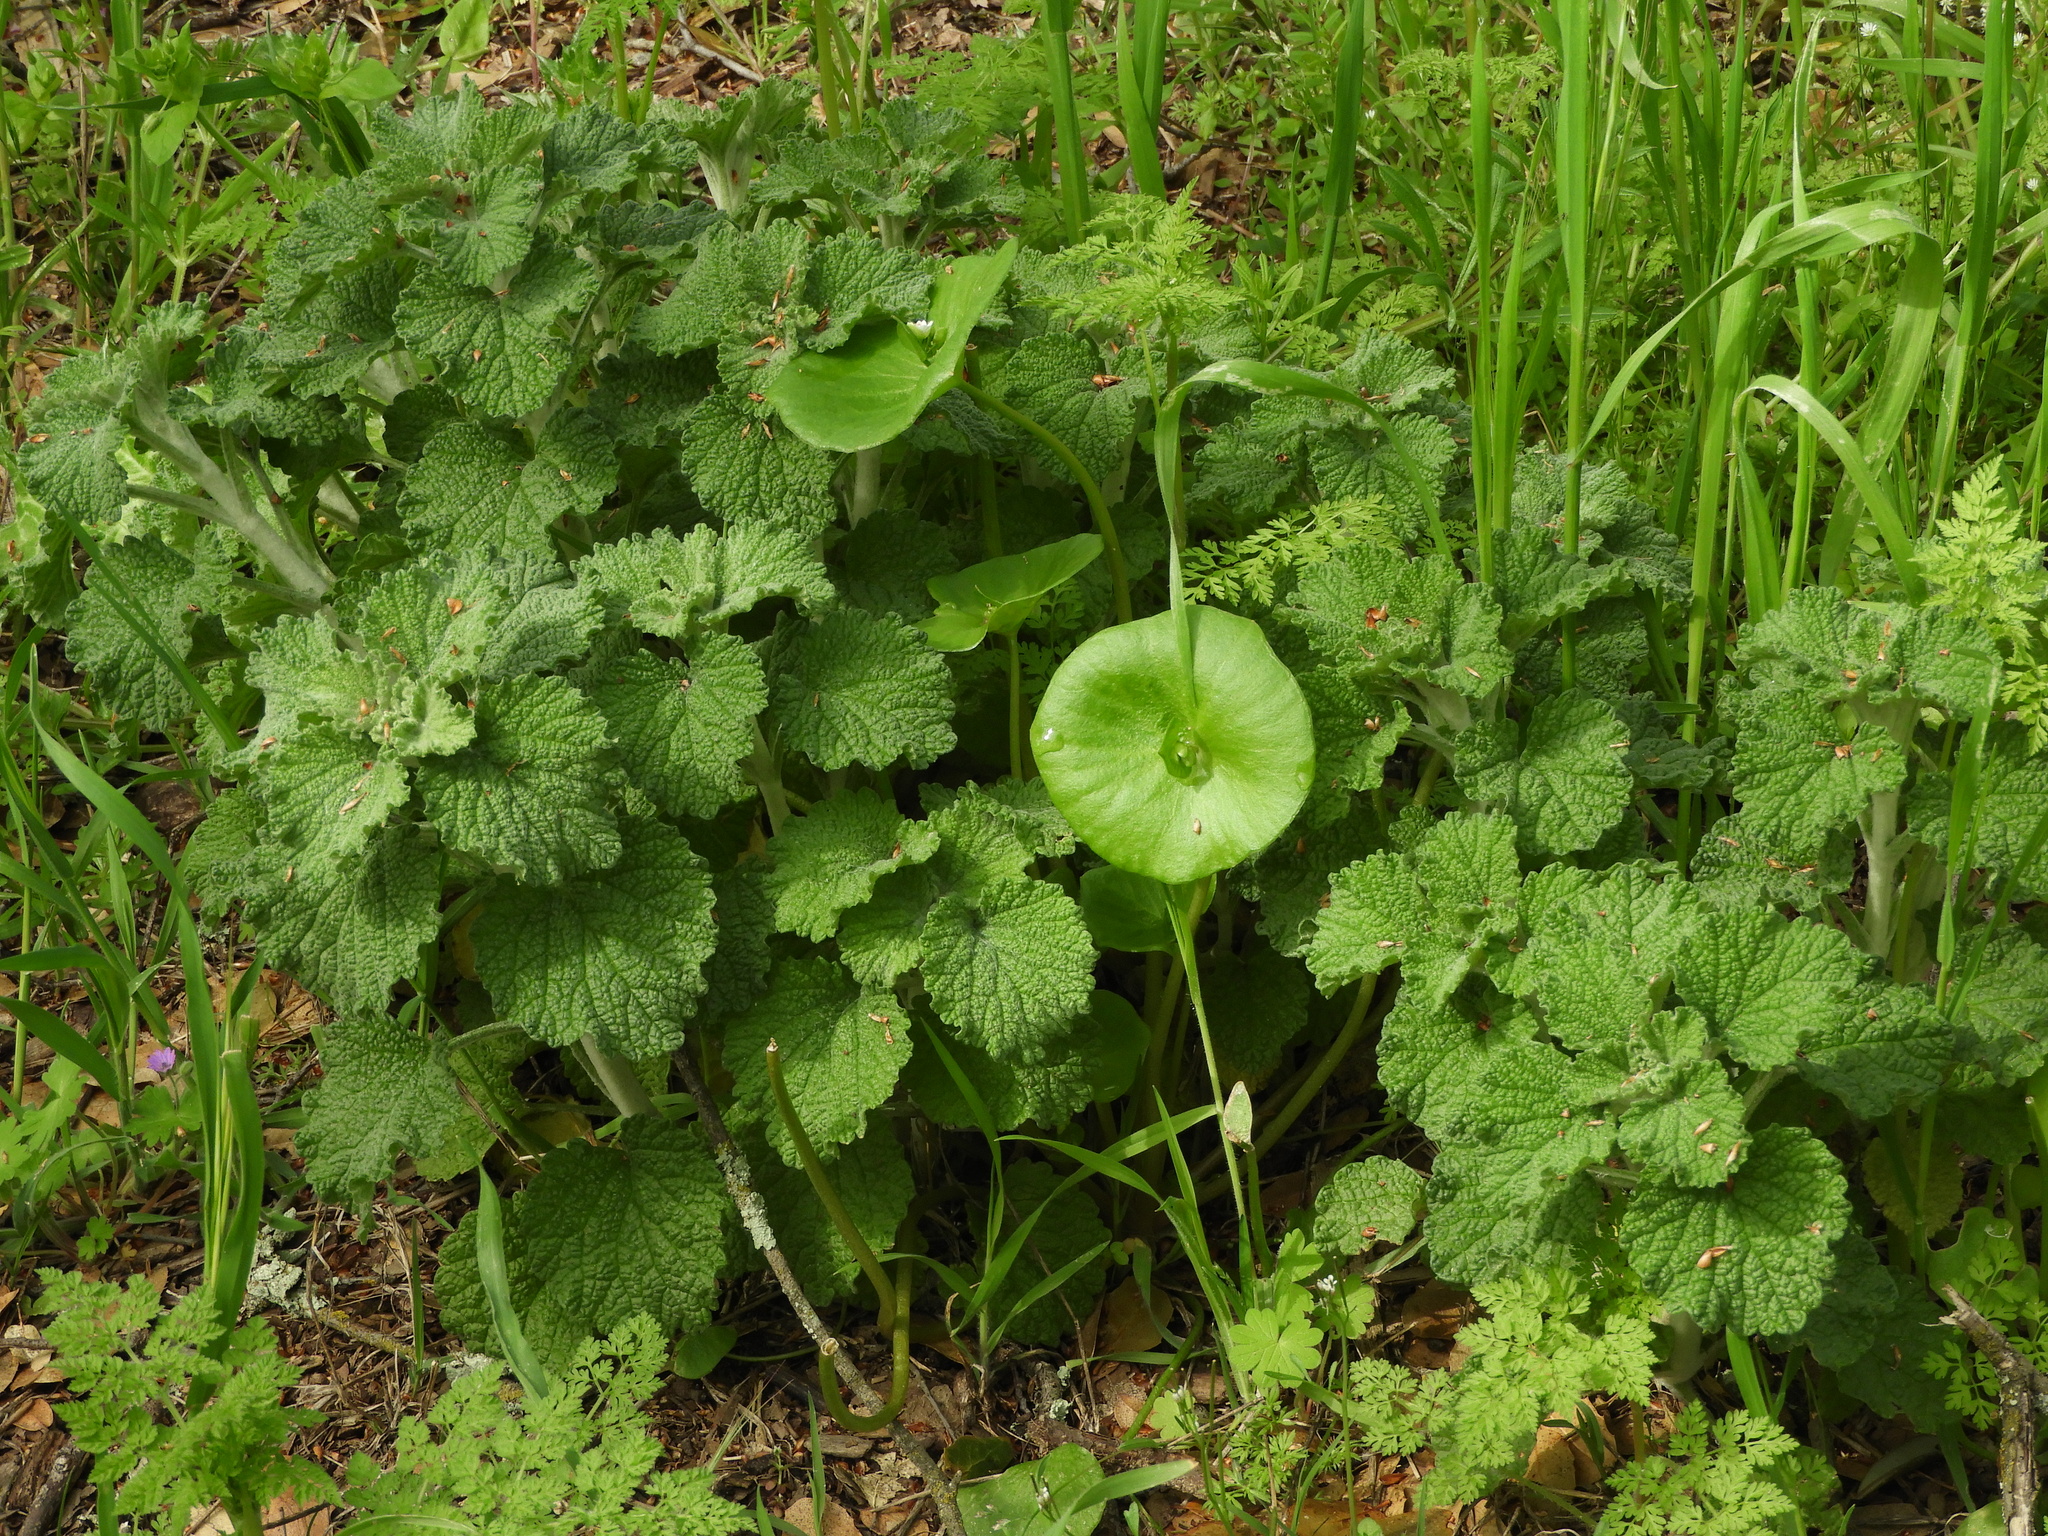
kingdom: Plantae
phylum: Tracheophyta
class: Magnoliopsida
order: Lamiales
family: Lamiaceae
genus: Marrubium
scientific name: Marrubium vulgare
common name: Horehound
